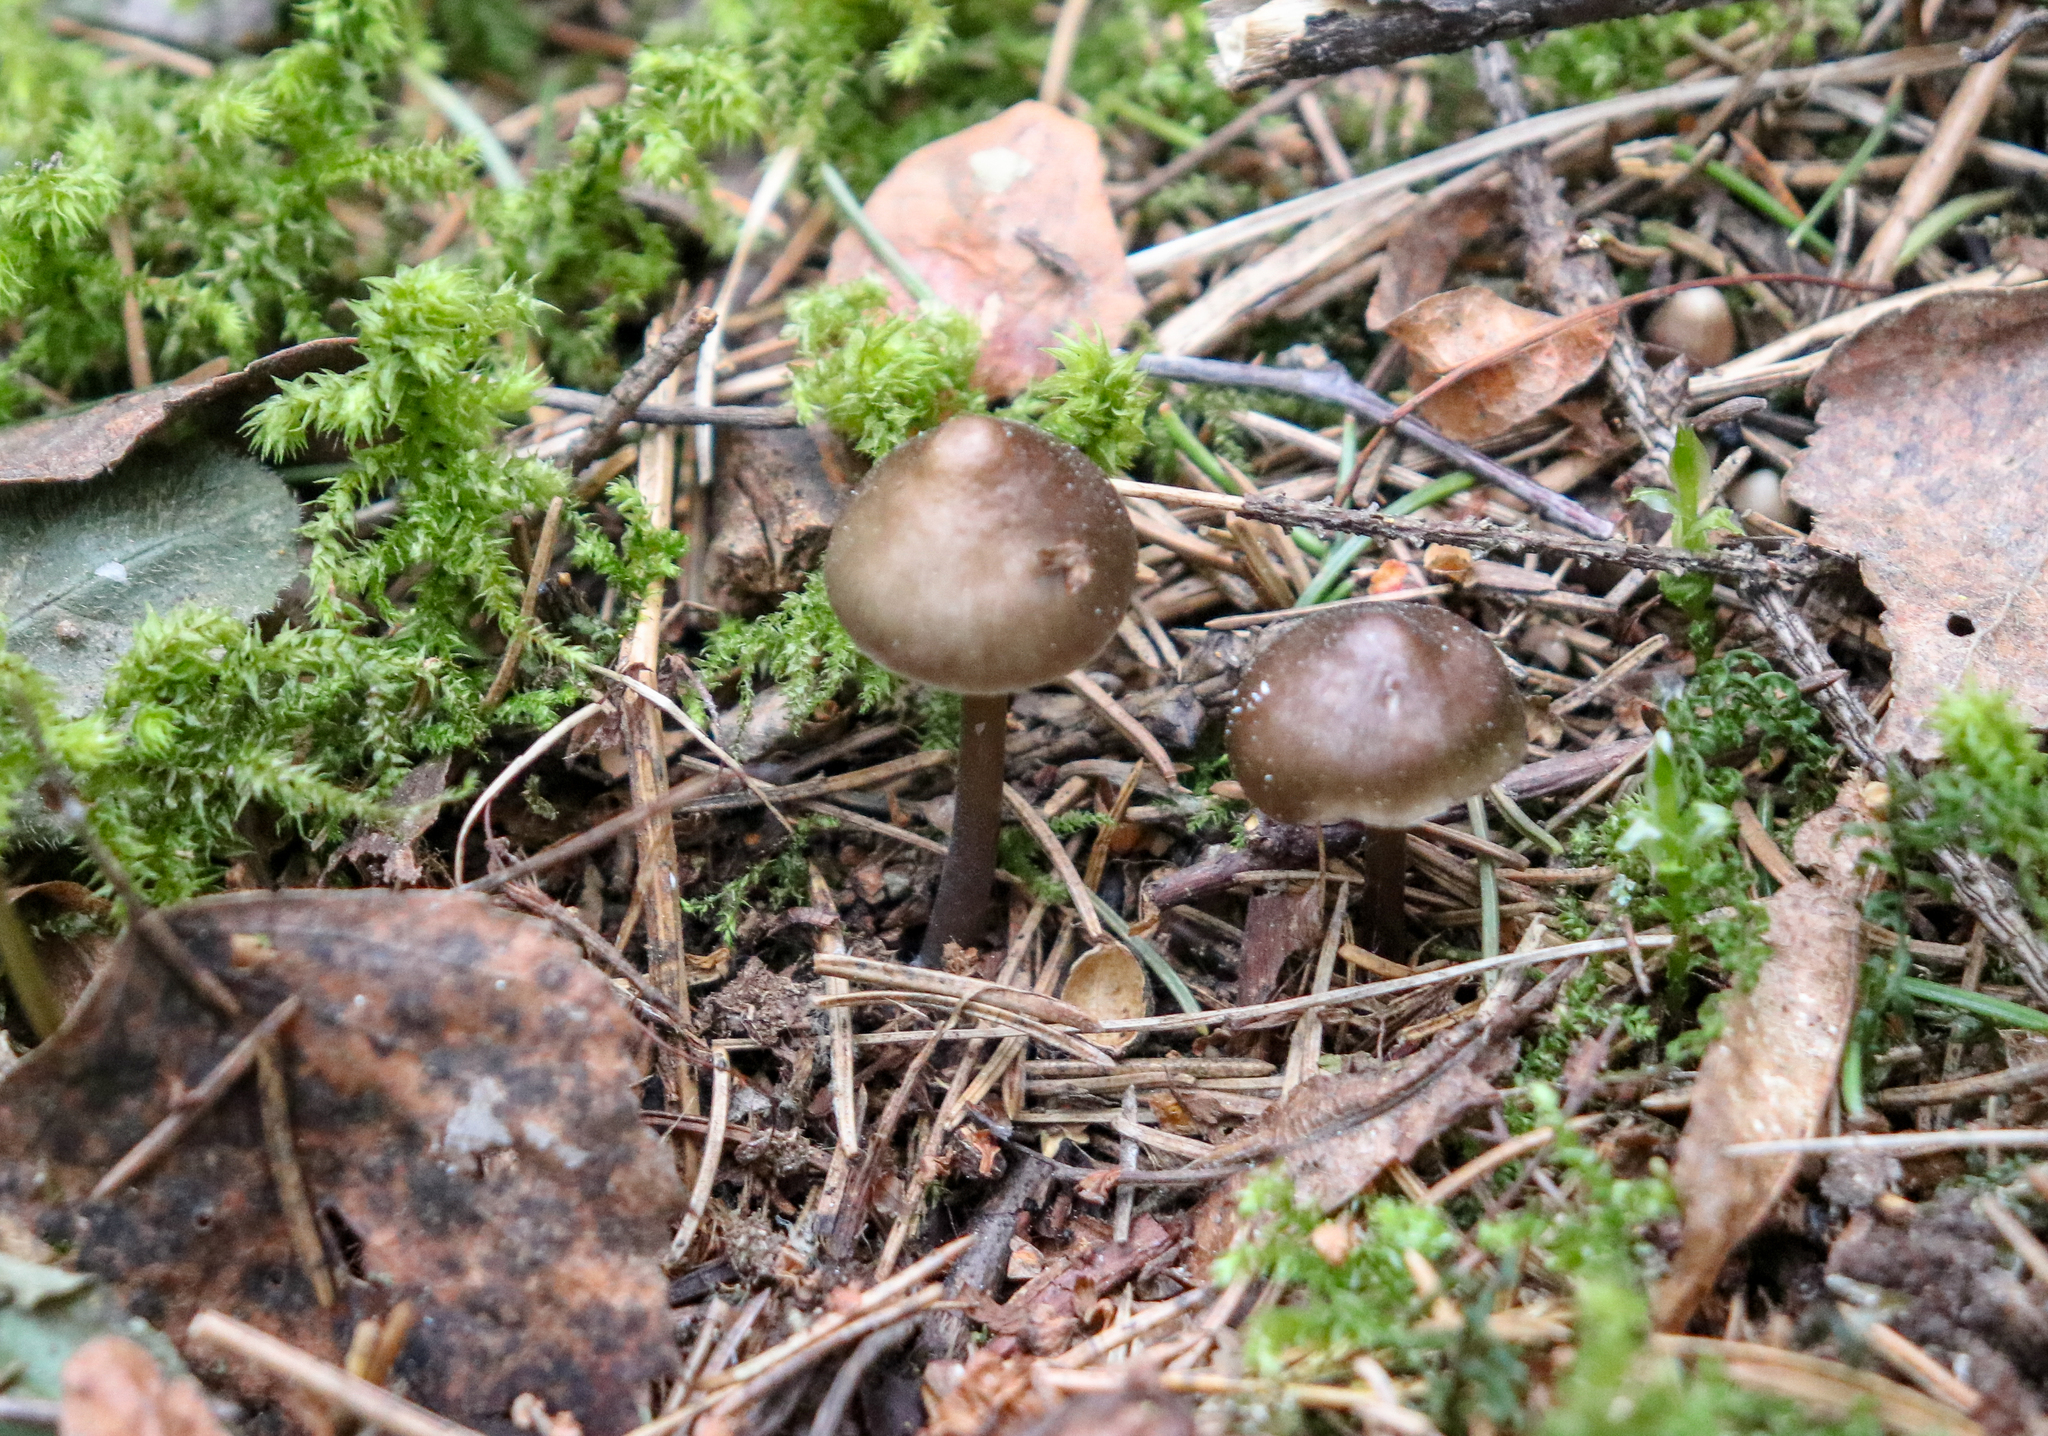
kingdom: Fungi
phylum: Basidiomycota
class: Agaricomycetes
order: Agaricales
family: Mycenaceae
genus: Mycena
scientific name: Mycena plumipes
